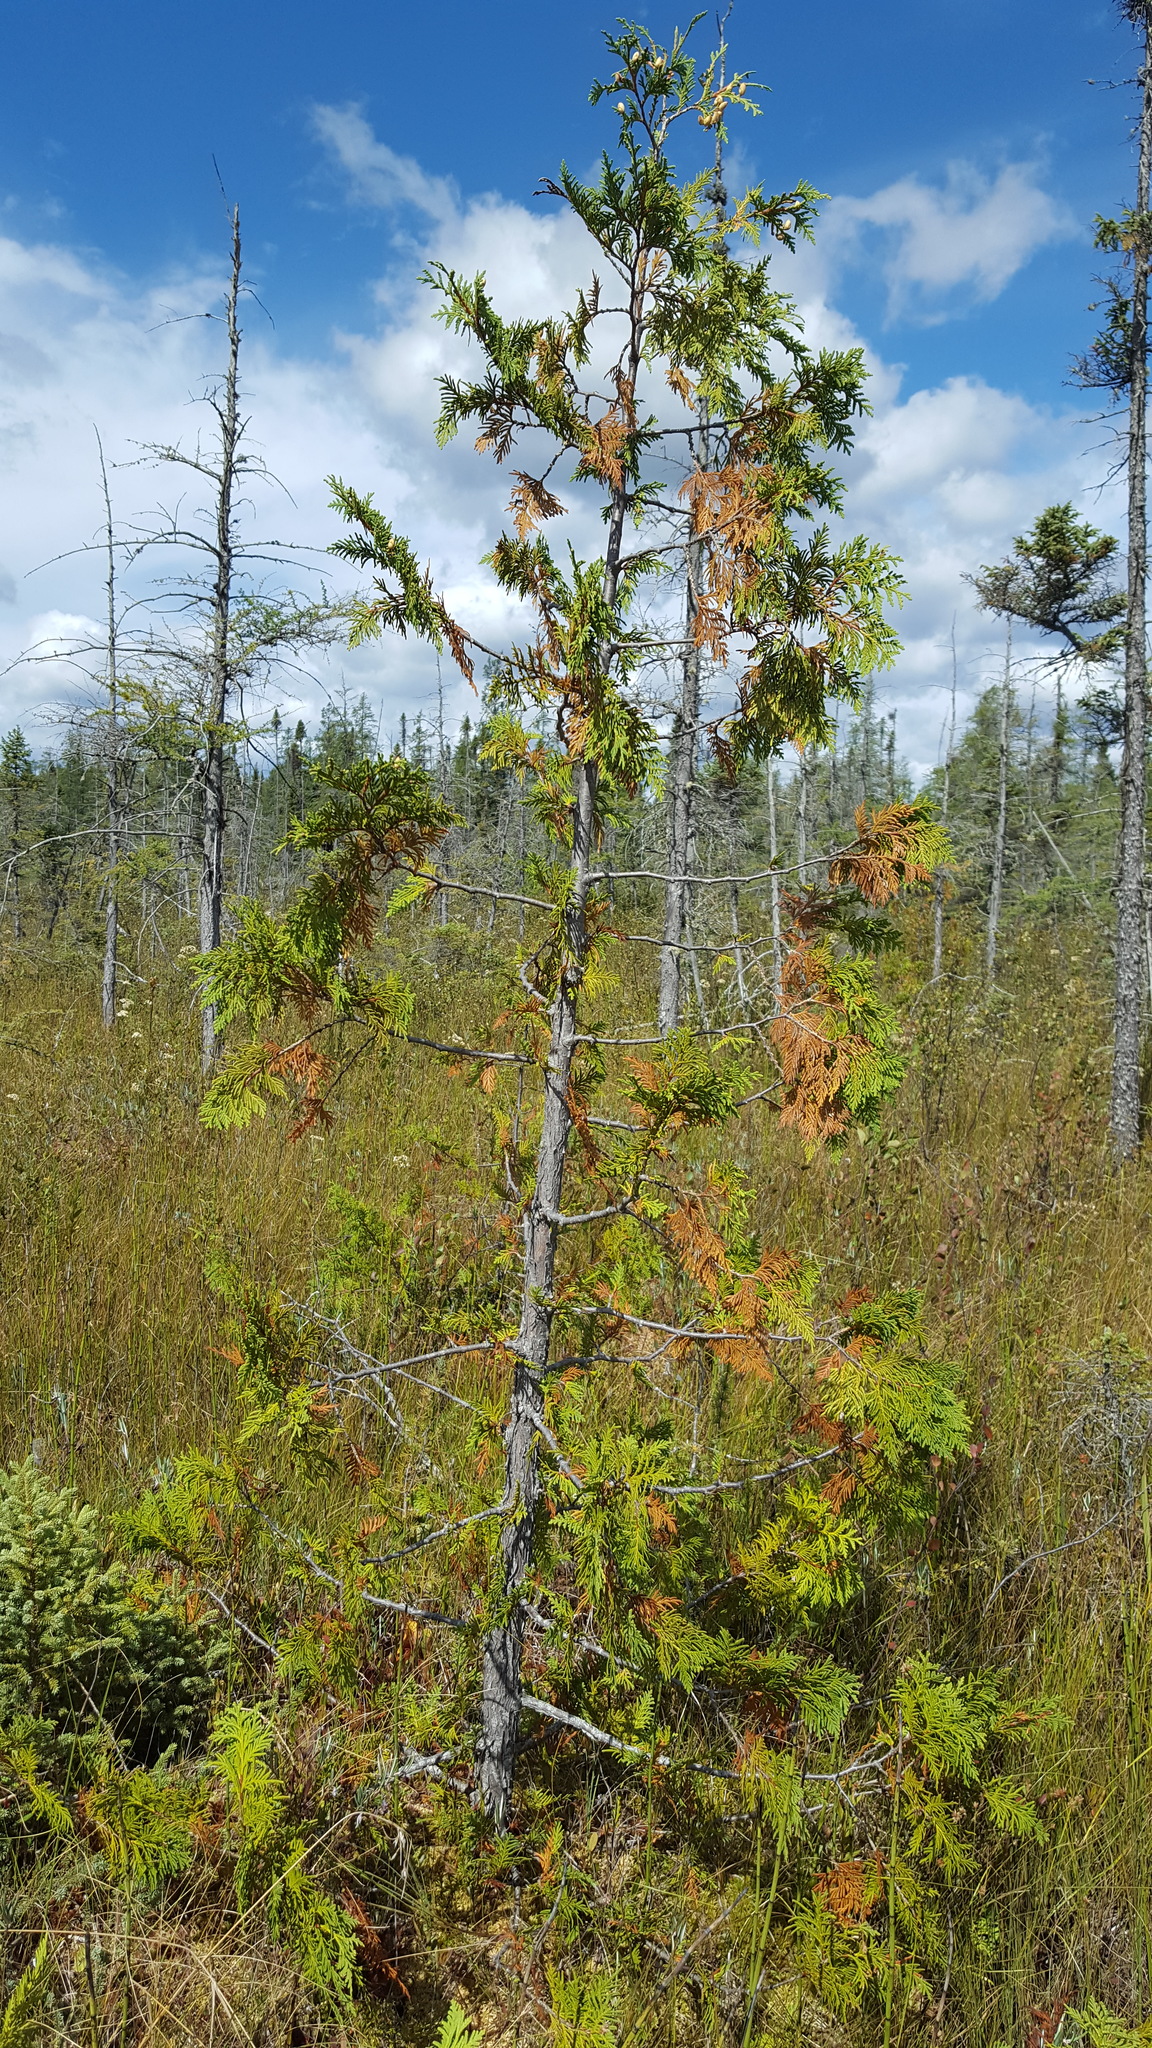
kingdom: Plantae
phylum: Tracheophyta
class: Pinopsida
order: Pinales
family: Cupressaceae
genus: Thuja
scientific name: Thuja occidentalis
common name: Northern white-cedar
